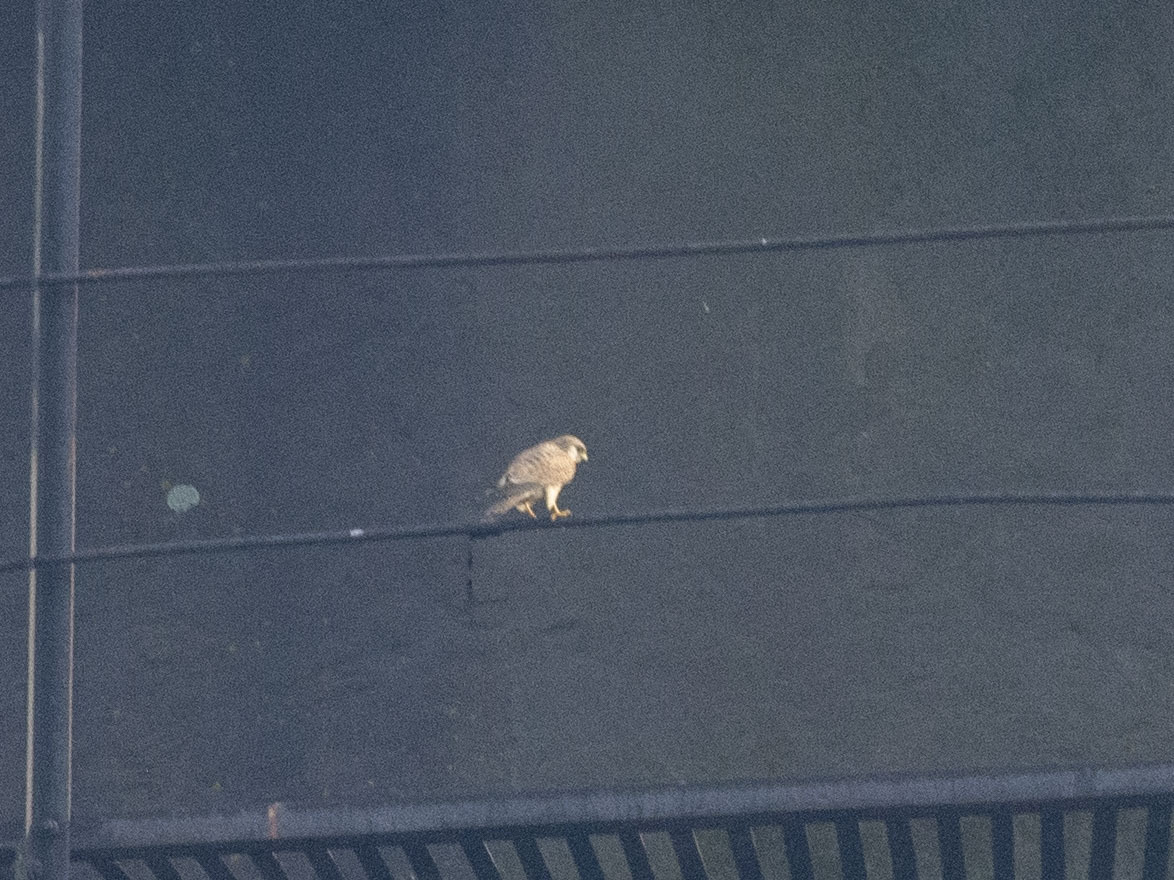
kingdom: Animalia
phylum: Chordata
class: Aves
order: Falconiformes
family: Falconidae
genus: Falco
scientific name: Falco tinnunculus
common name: Common kestrel
